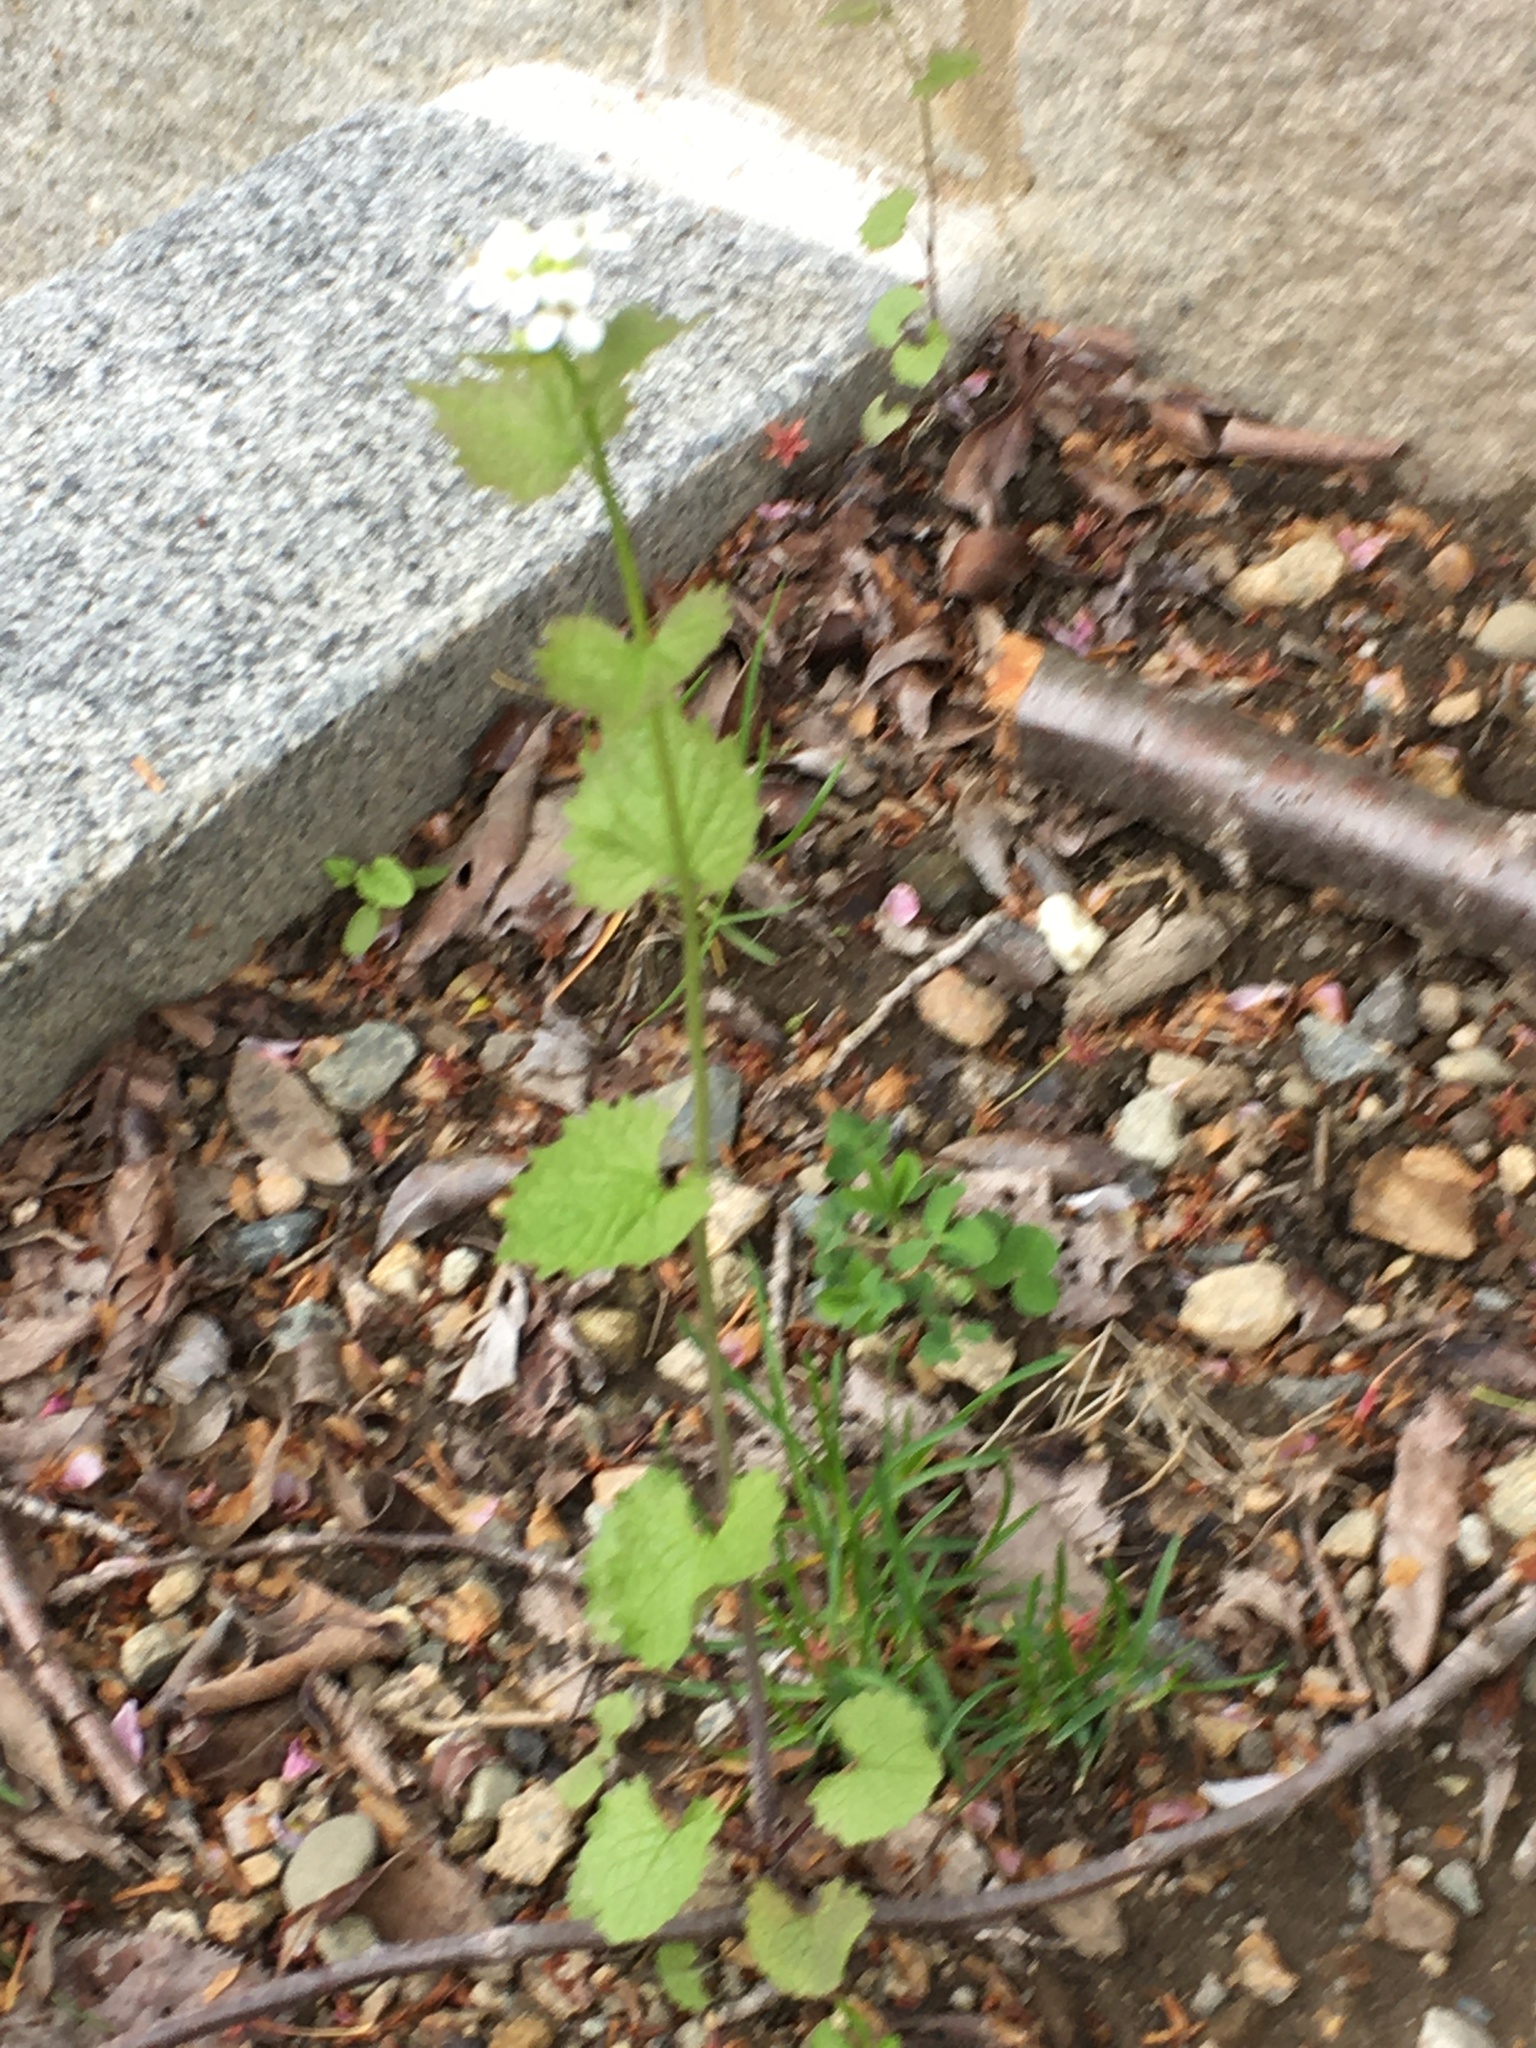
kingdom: Plantae
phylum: Tracheophyta
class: Magnoliopsida
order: Brassicales
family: Brassicaceae
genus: Alliaria
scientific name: Alliaria petiolata
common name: Garlic mustard
